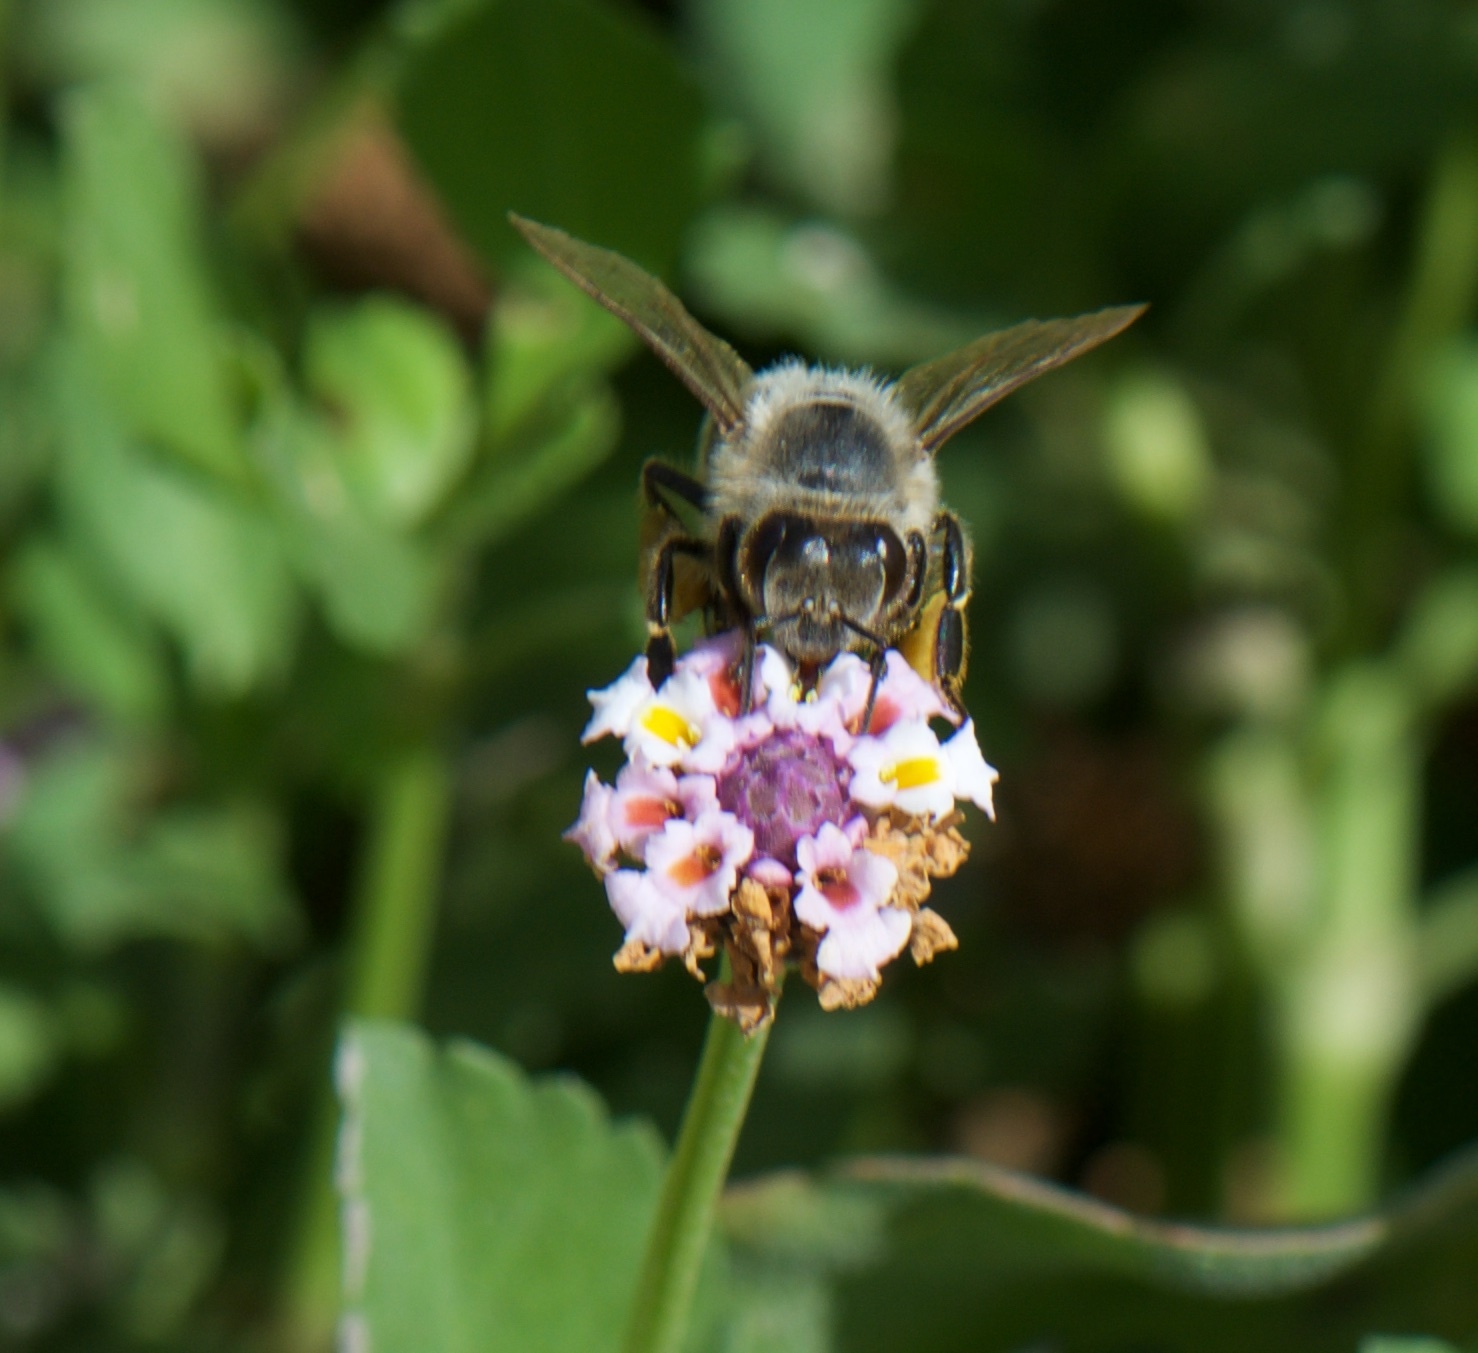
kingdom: Animalia
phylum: Arthropoda
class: Insecta
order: Hymenoptera
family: Apidae
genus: Apis
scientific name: Apis mellifera
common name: Honey bee
